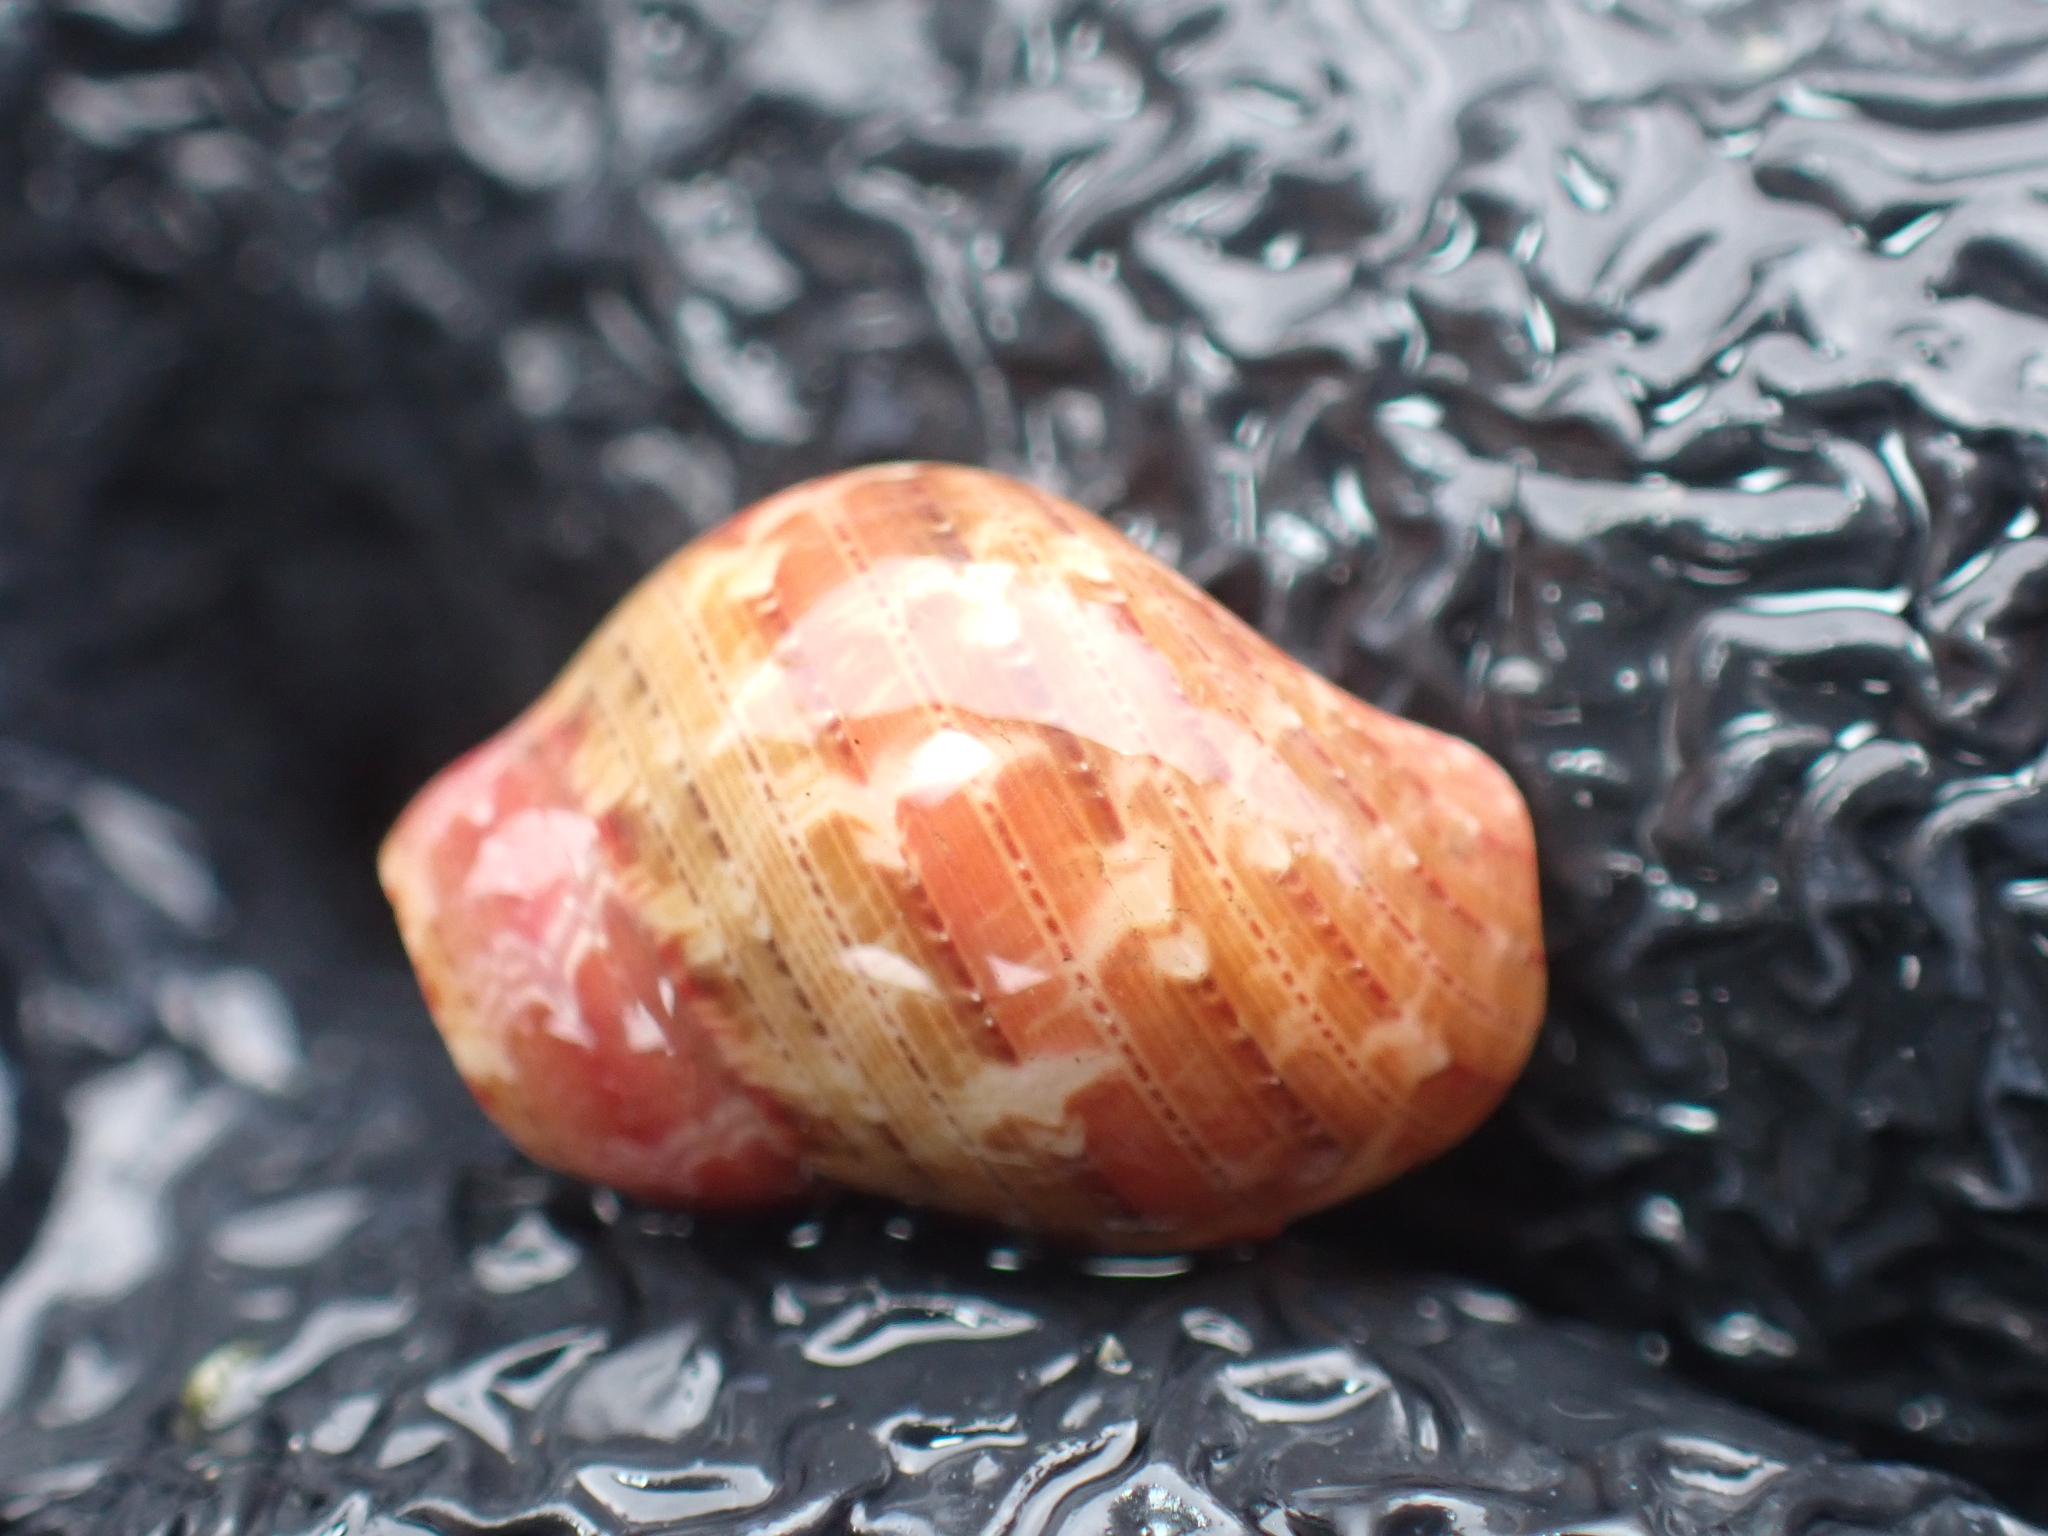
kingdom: Animalia
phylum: Mollusca
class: Gastropoda
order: Trochida
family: Phasianellidae
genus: Phasianella
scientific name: Phasianella solida
